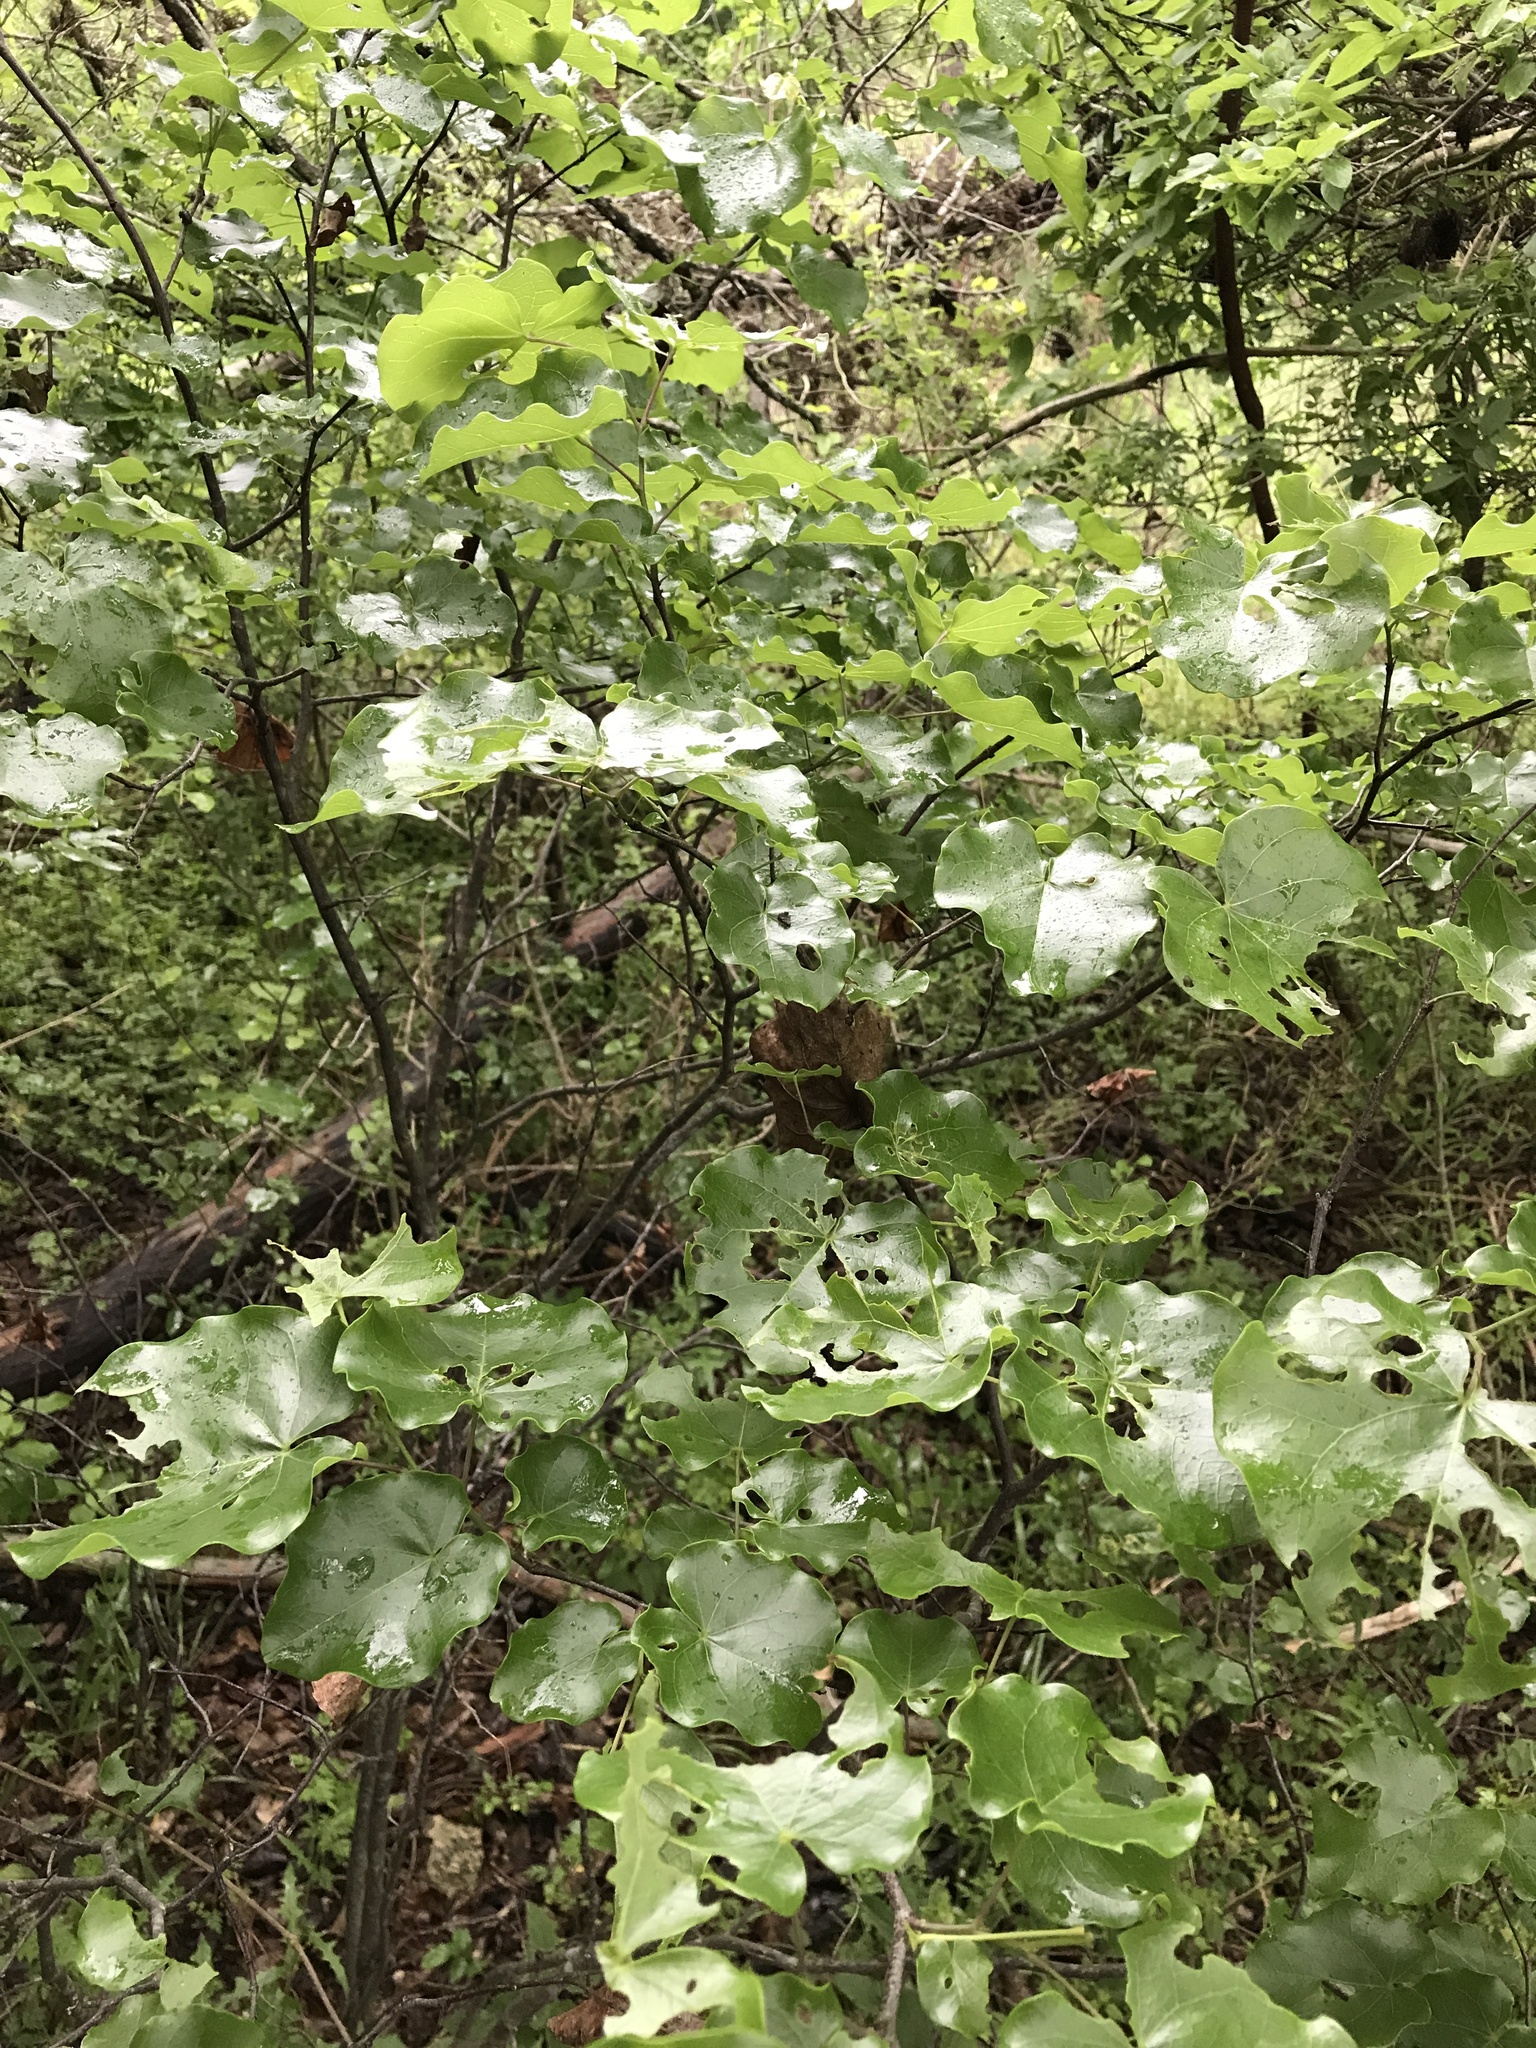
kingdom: Plantae
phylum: Tracheophyta
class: Magnoliopsida
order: Fabales
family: Fabaceae
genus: Cercis
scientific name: Cercis canadensis
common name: Eastern redbud
